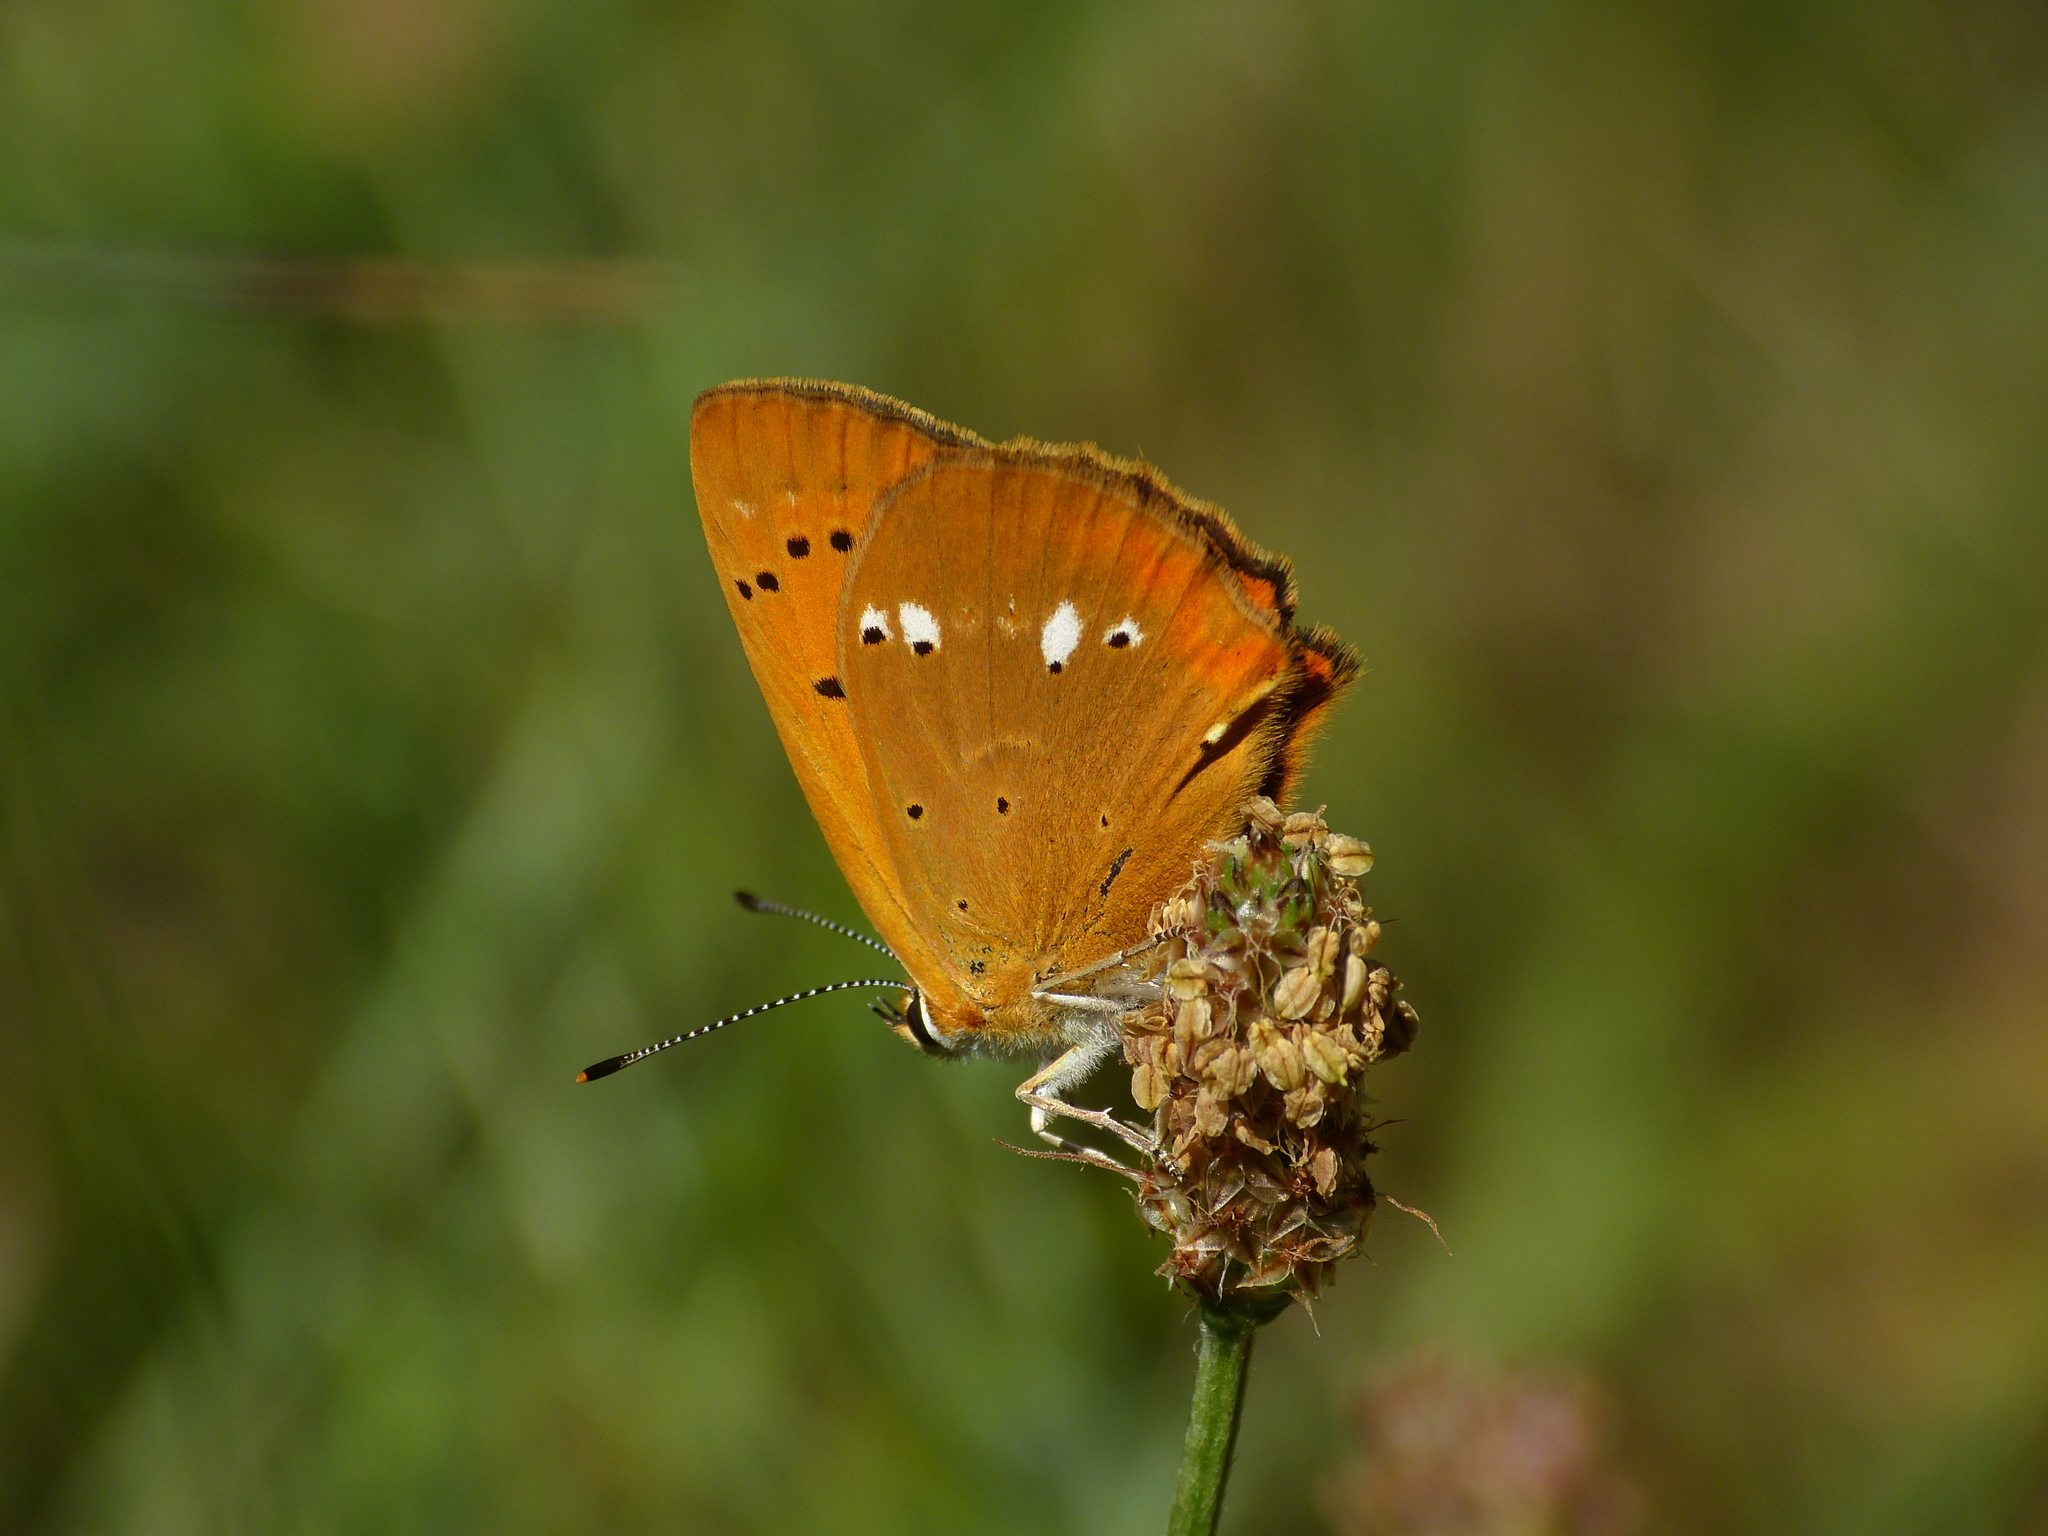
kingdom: Animalia
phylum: Arthropoda
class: Insecta
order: Lepidoptera
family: Lycaenidae
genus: Lycaena
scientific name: Lycaena virgaureae
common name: Scarce copper
